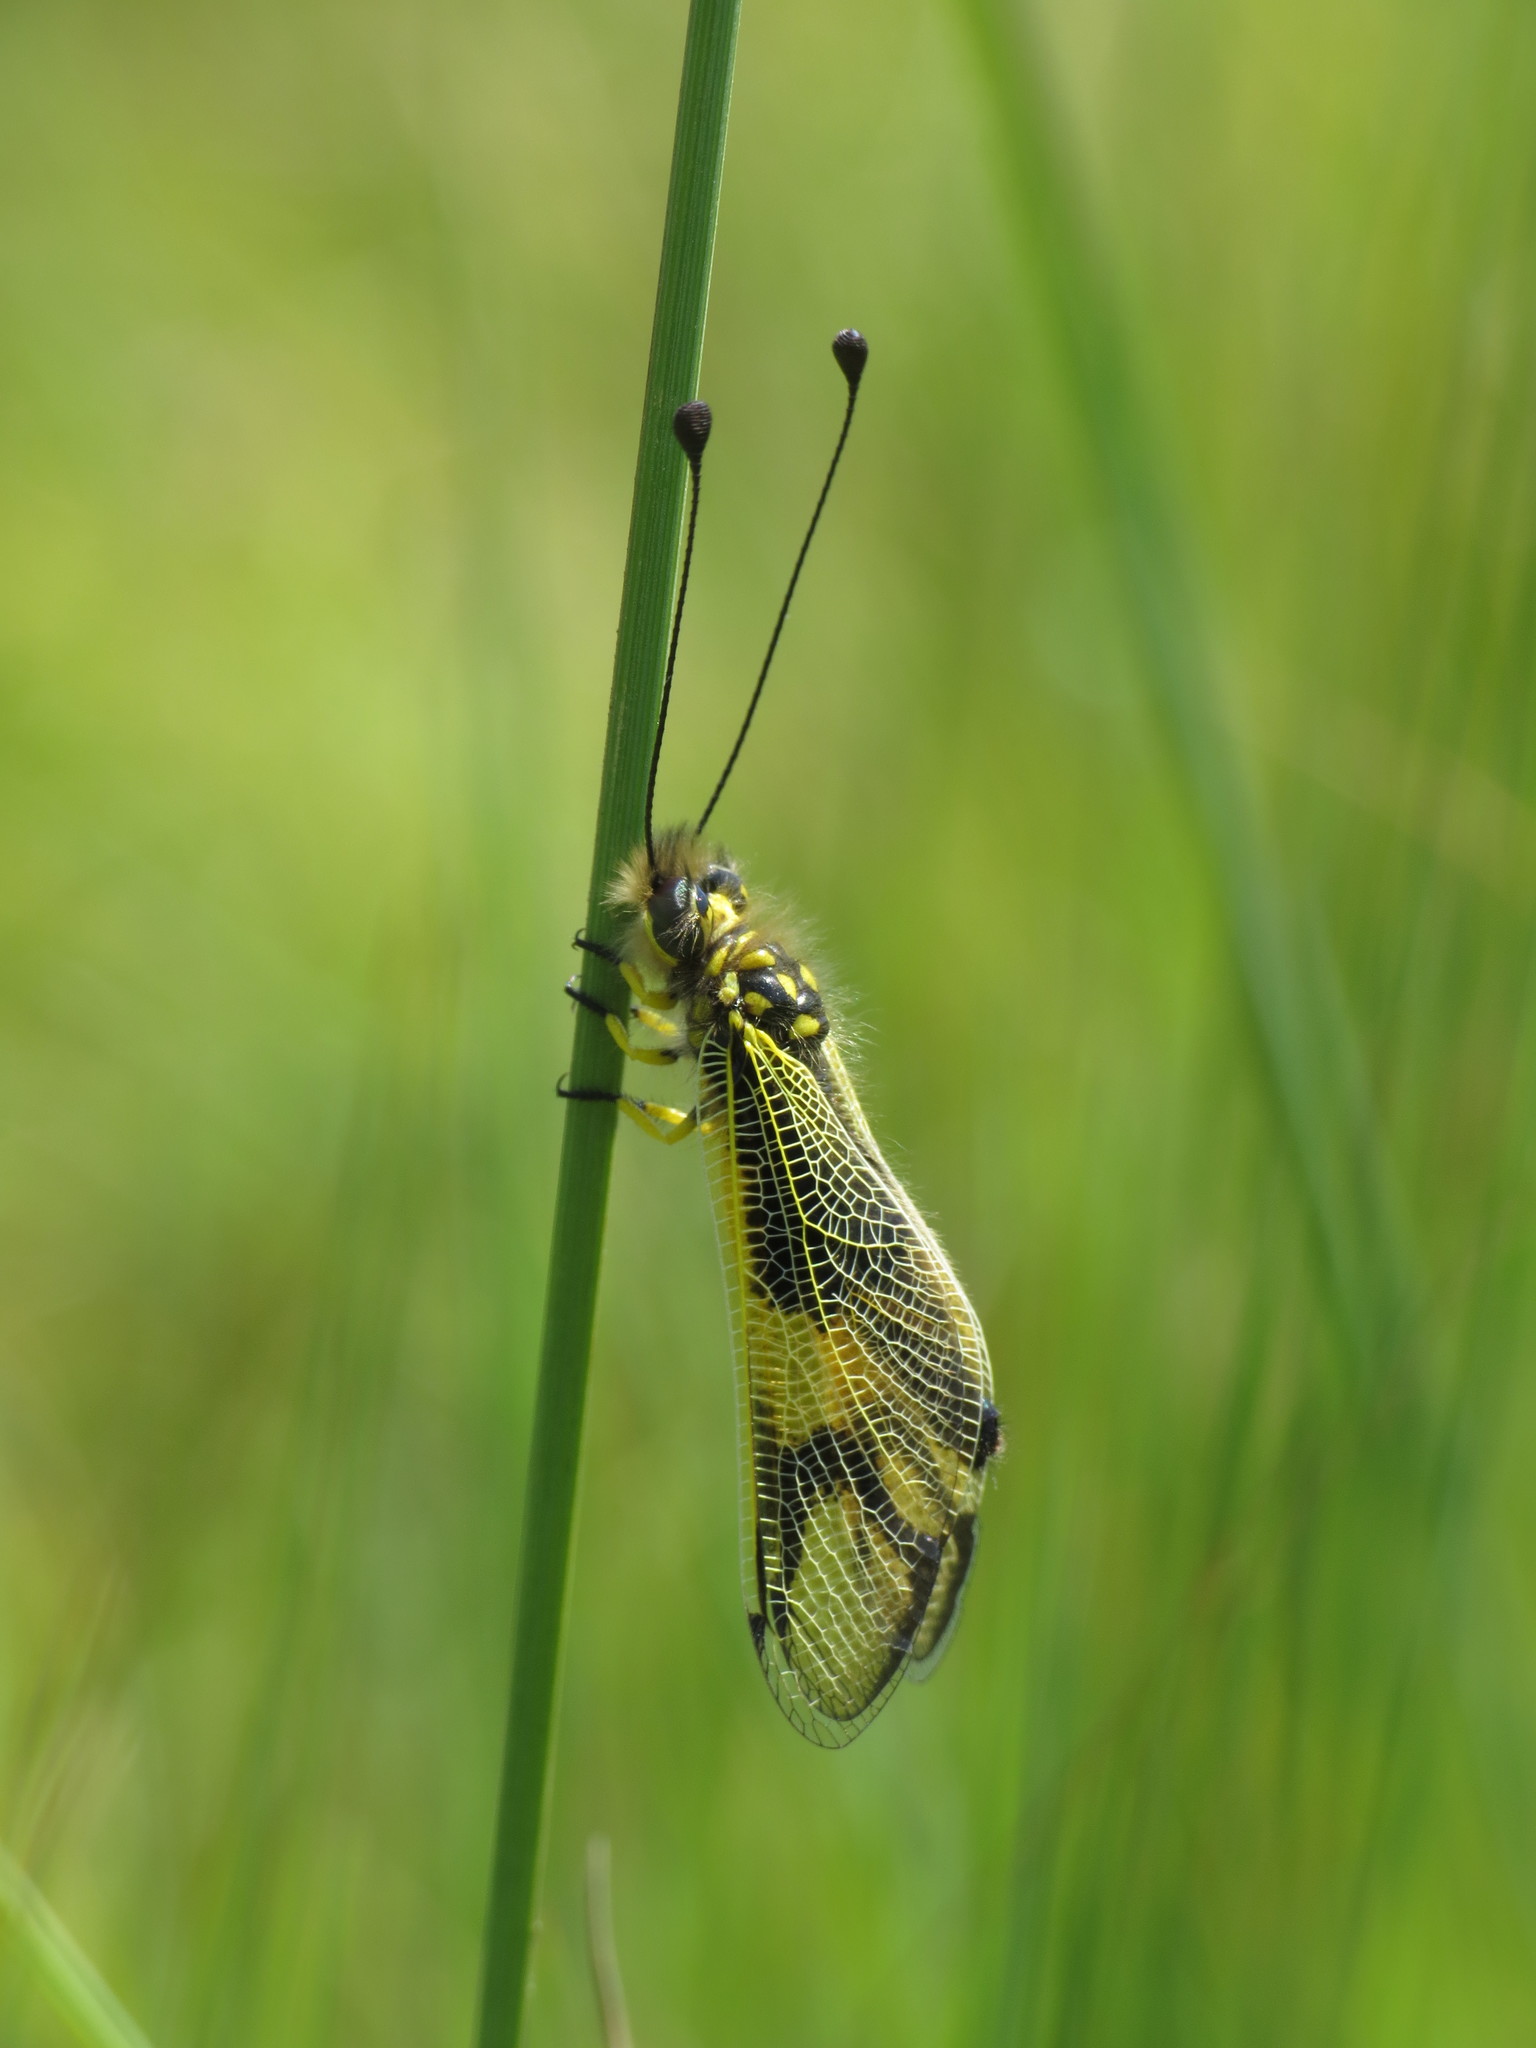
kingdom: Animalia
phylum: Arthropoda
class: Insecta
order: Neuroptera
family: Ascalaphidae
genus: Libelloides
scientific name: Libelloides longicornis
